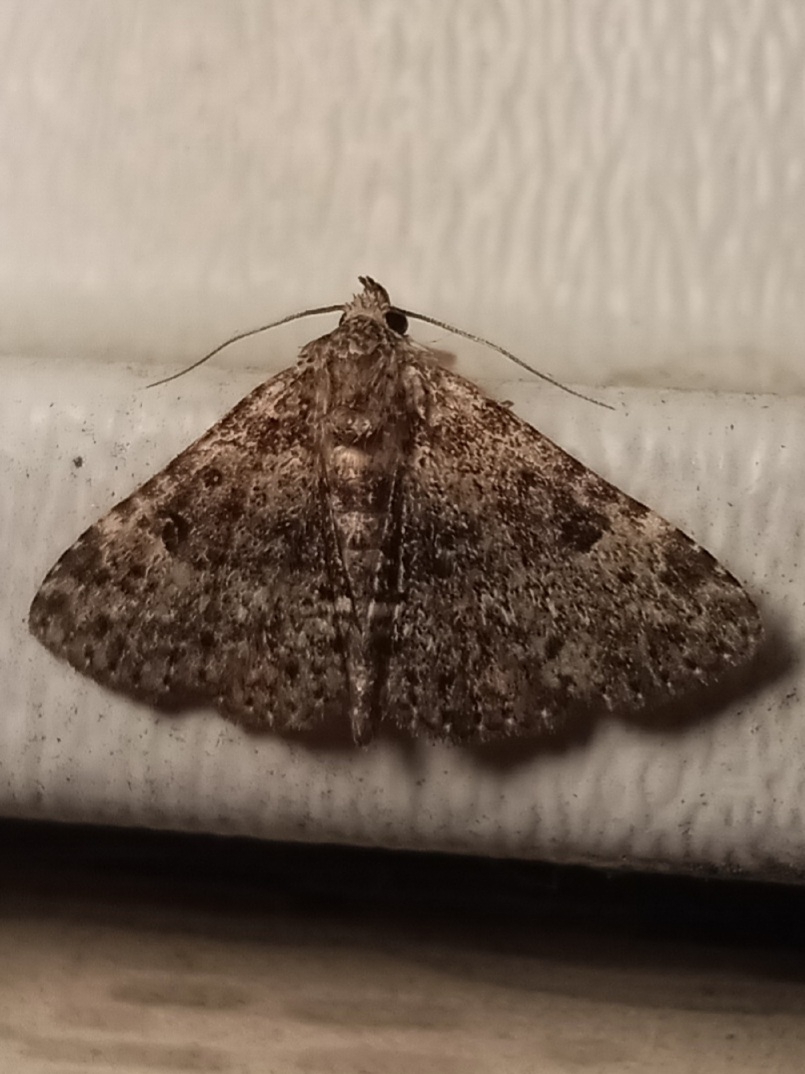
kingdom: Animalia
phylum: Arthropoda
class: Insecta
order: Lepidoptera
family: Erebidae
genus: Metalectra
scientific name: Metalectra discalis
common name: Common fungus moth
